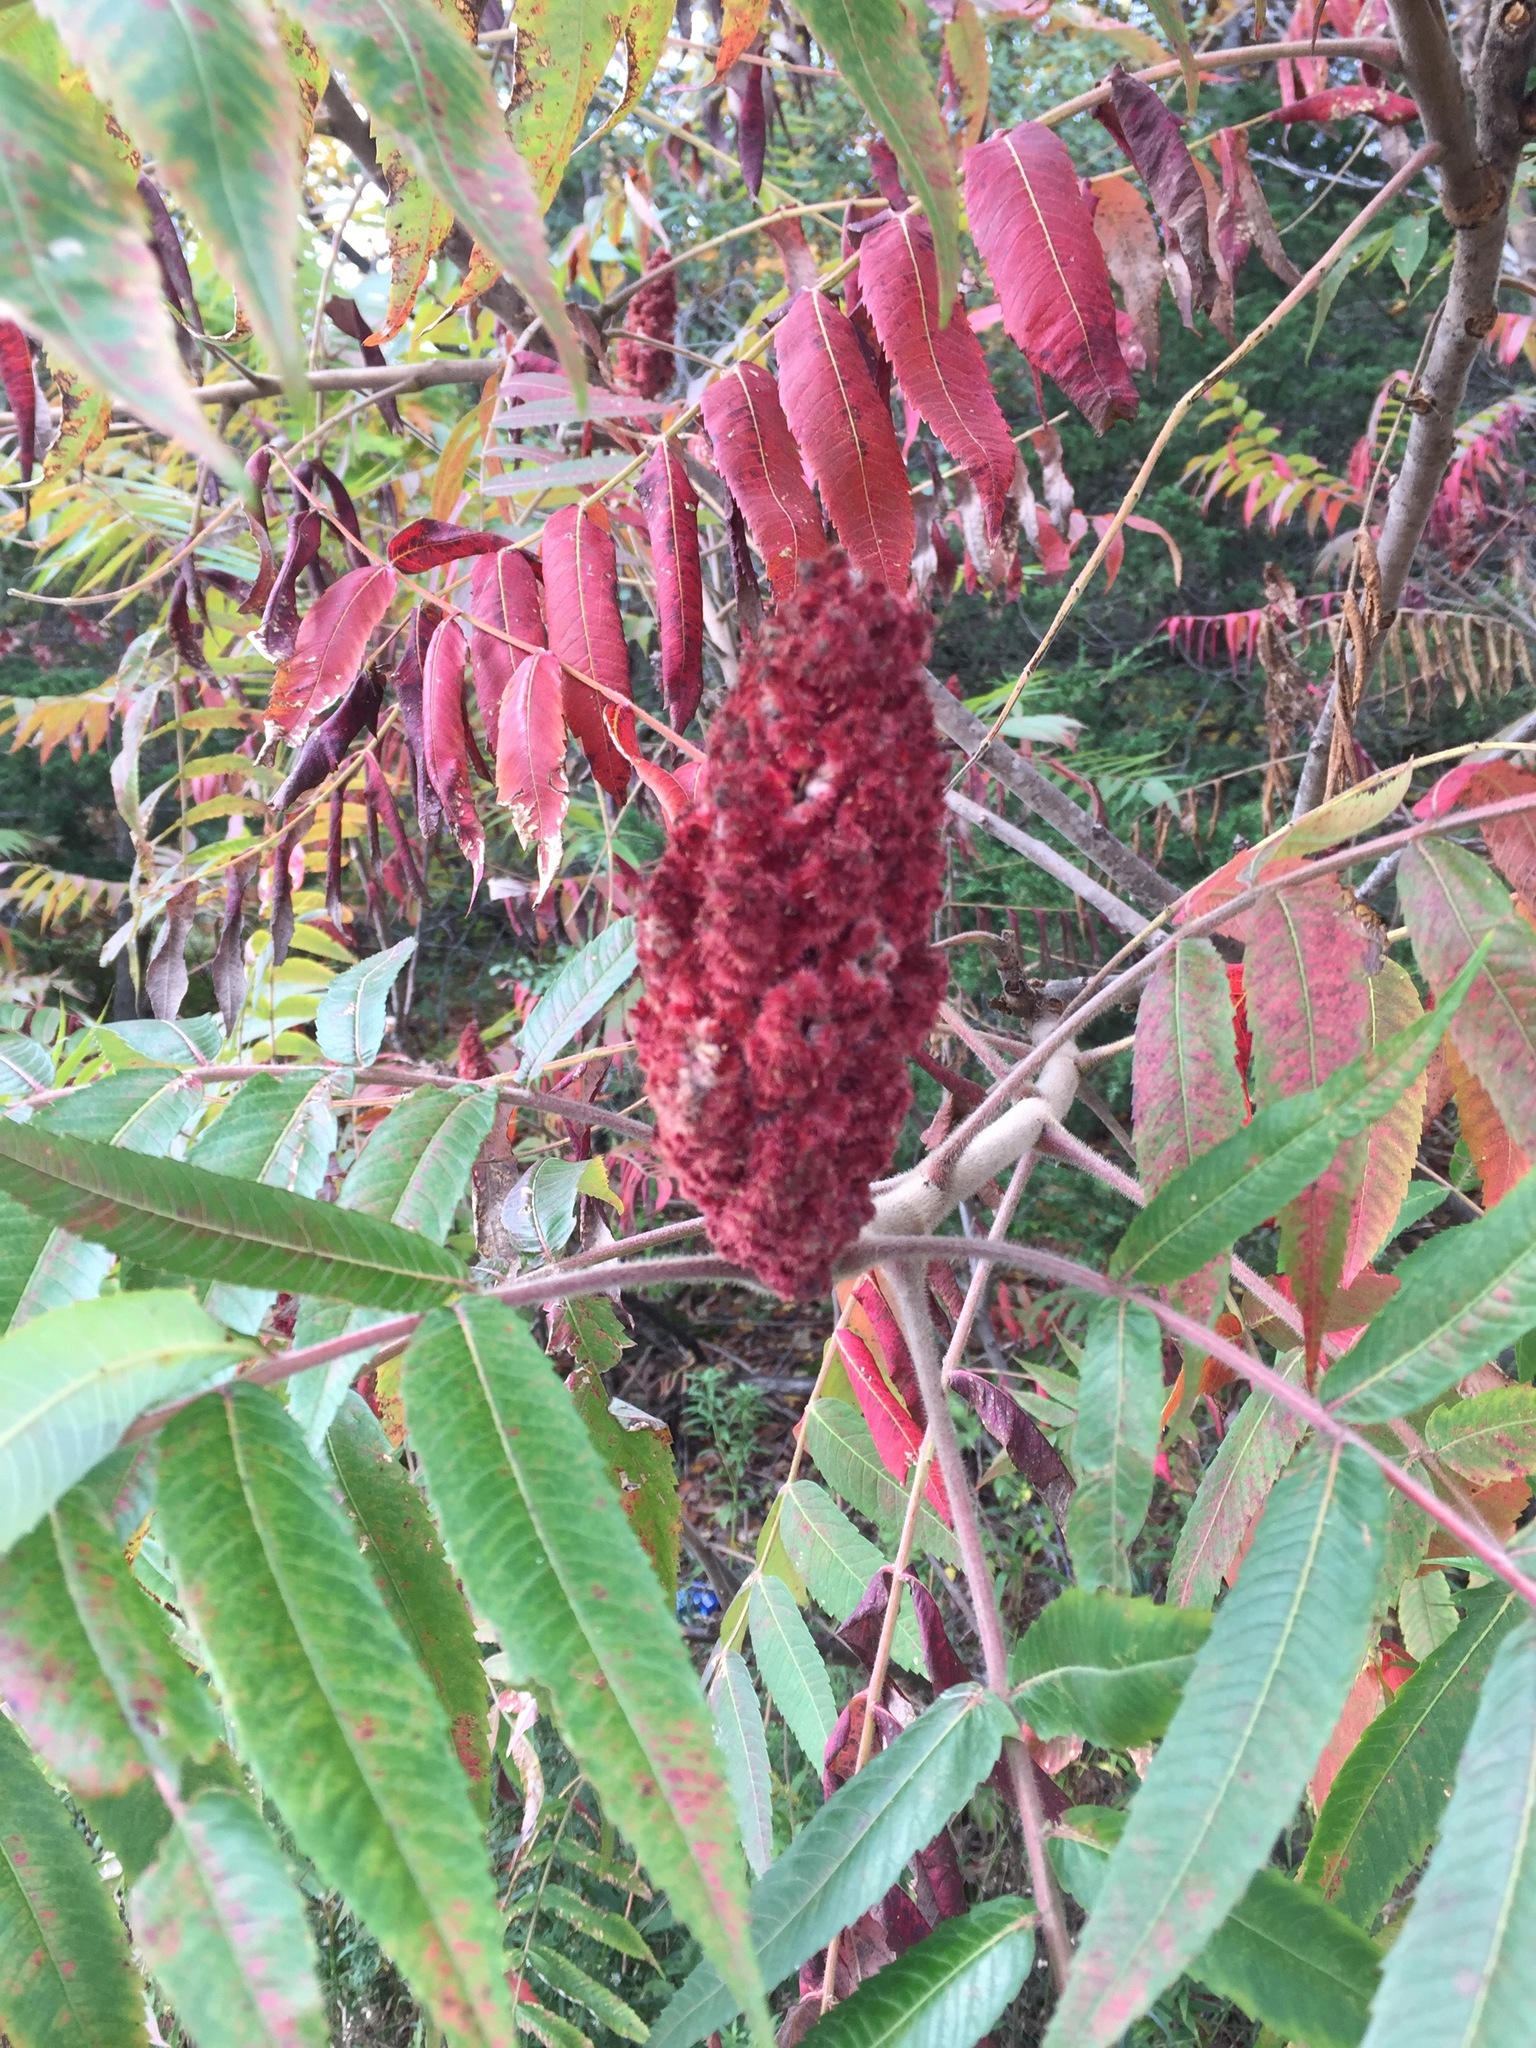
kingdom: Plantae
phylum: Tracheophyta
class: Magnoliopsida
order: Sapindales
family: Anacardiaceae
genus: Rhus
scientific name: Rhus typhina
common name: Staghorn sumac
